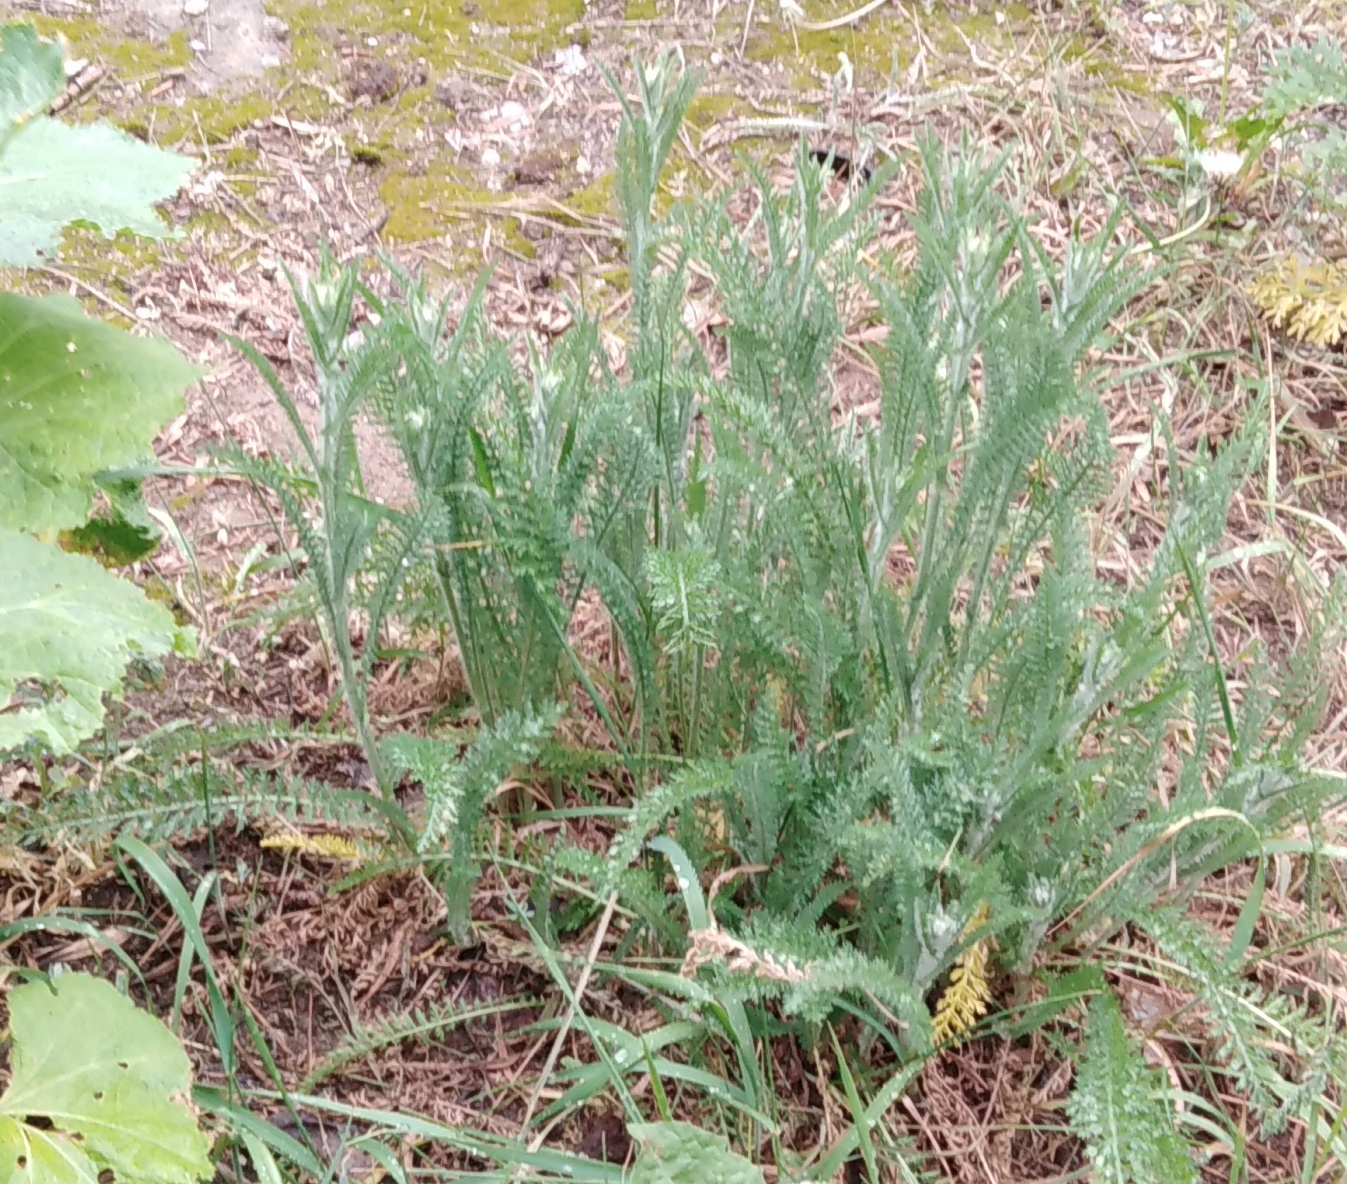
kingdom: Plantae
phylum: Tracheophyta
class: Magnoliopsida
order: Asterales
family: Asteraceae
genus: Achillea
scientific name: Achillea millefolium
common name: Yarrow
